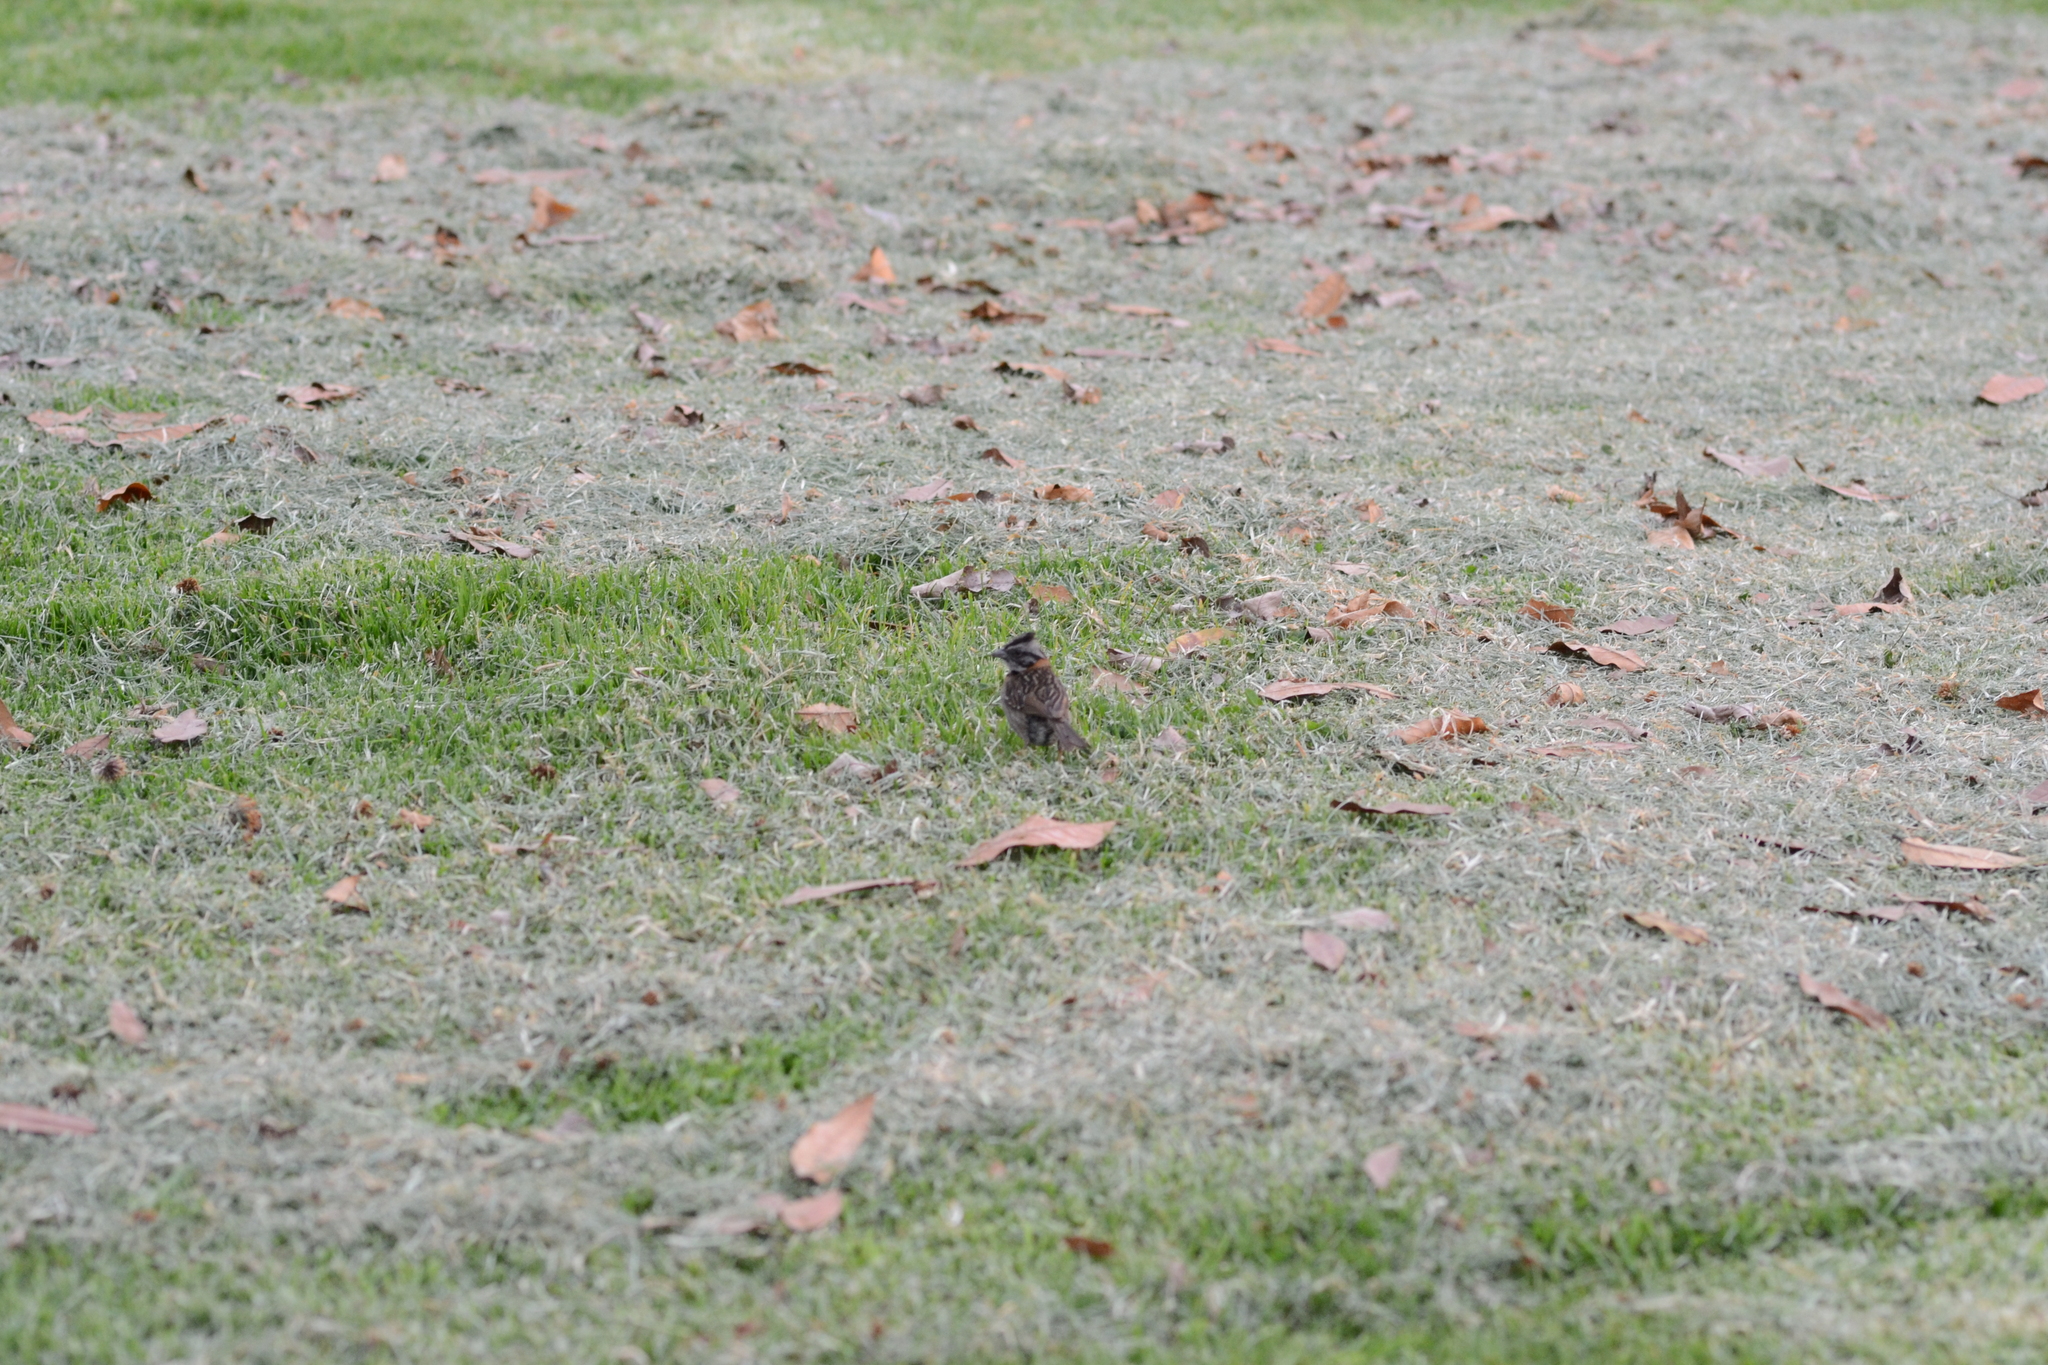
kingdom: Animalia
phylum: Chordata
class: Aves
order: Passeriformes
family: Passerellidae
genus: Zonotrichia
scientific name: Zonotrichia capensis
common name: Rufous-collared sparrow
